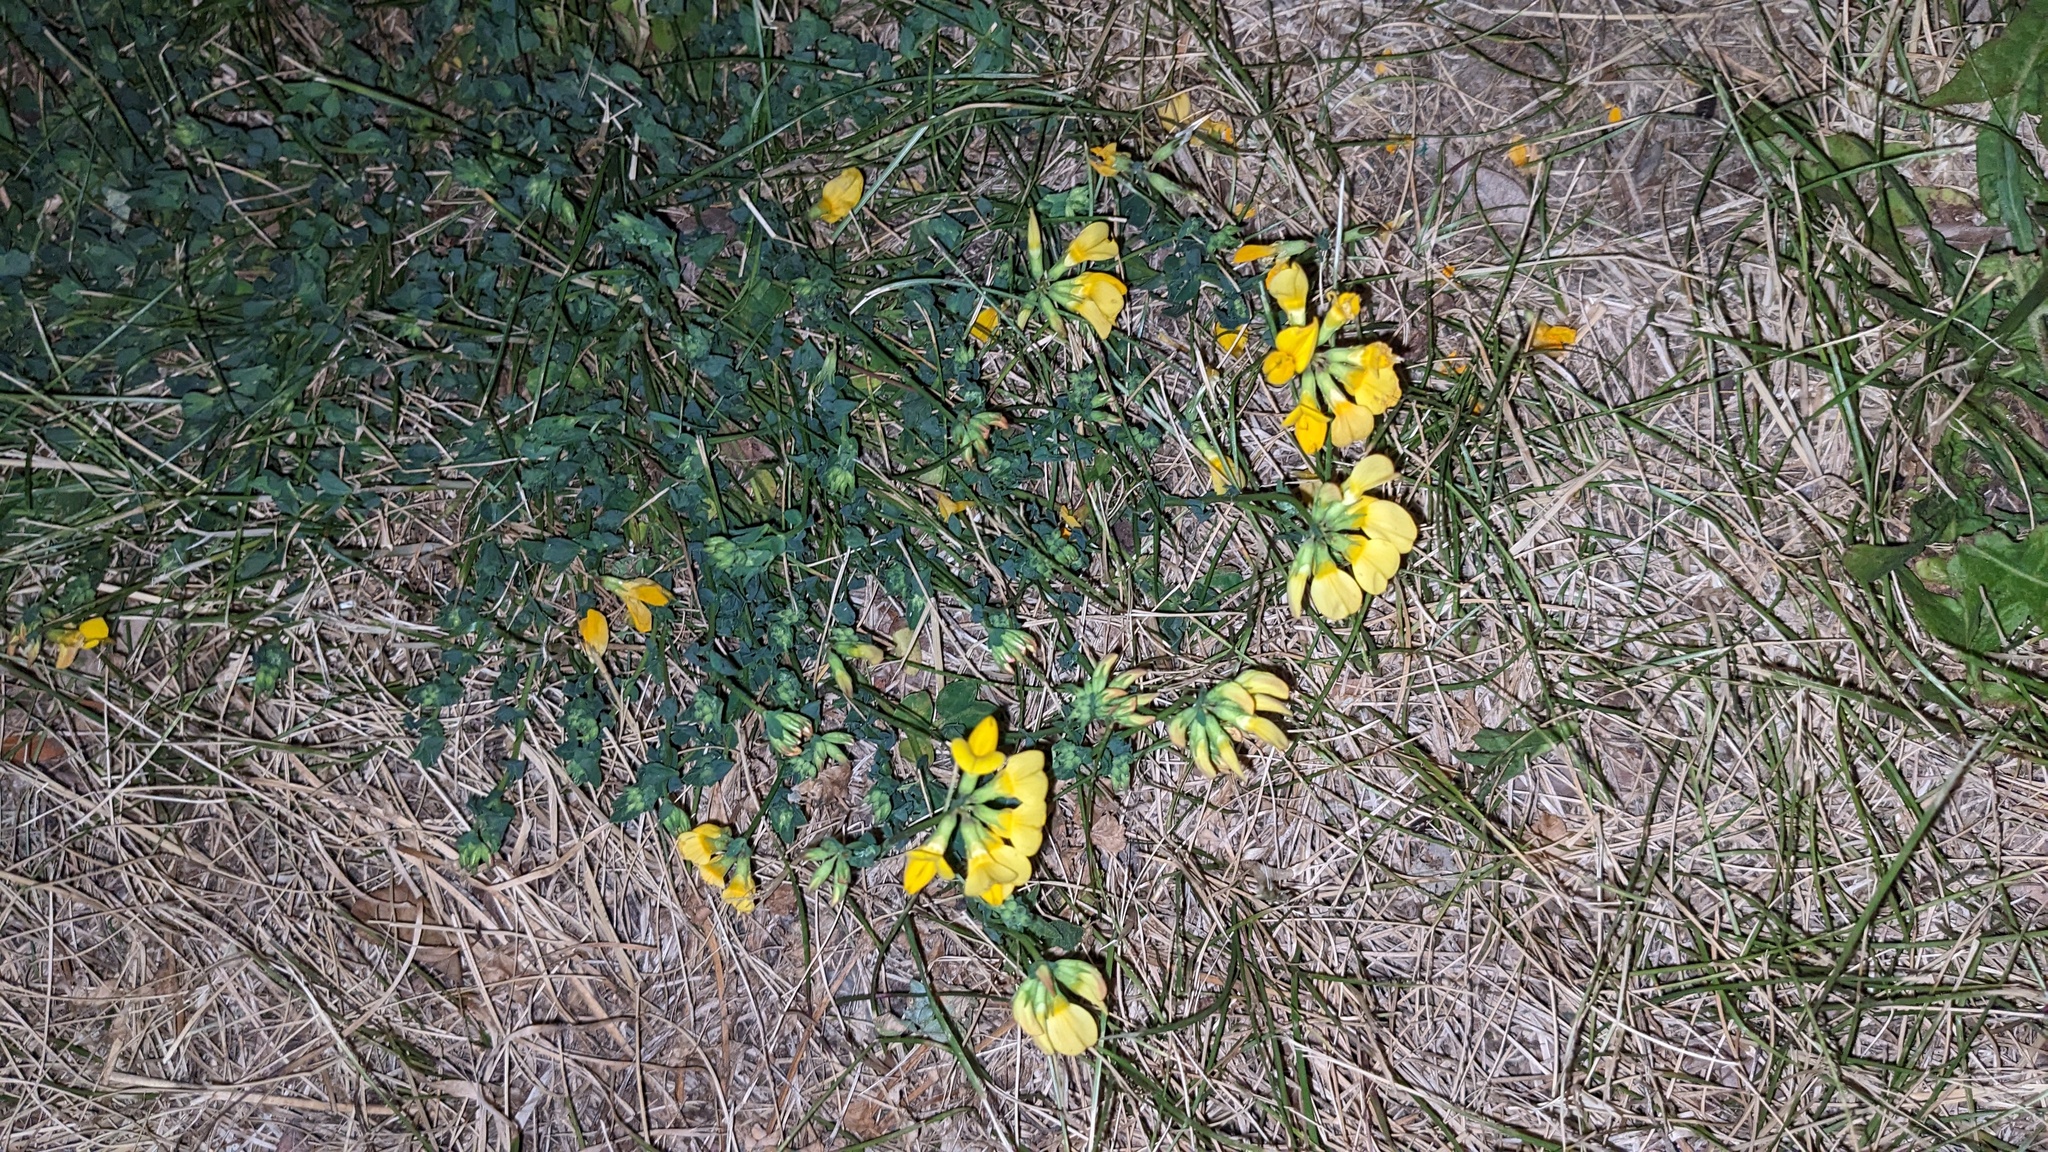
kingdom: Plantae
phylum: Tracheophyta
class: Magnoliopsida
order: Fabales
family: Fabaceae
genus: Lotus
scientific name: Lotus corniculatus
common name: Common bird's-foot-trefoil
